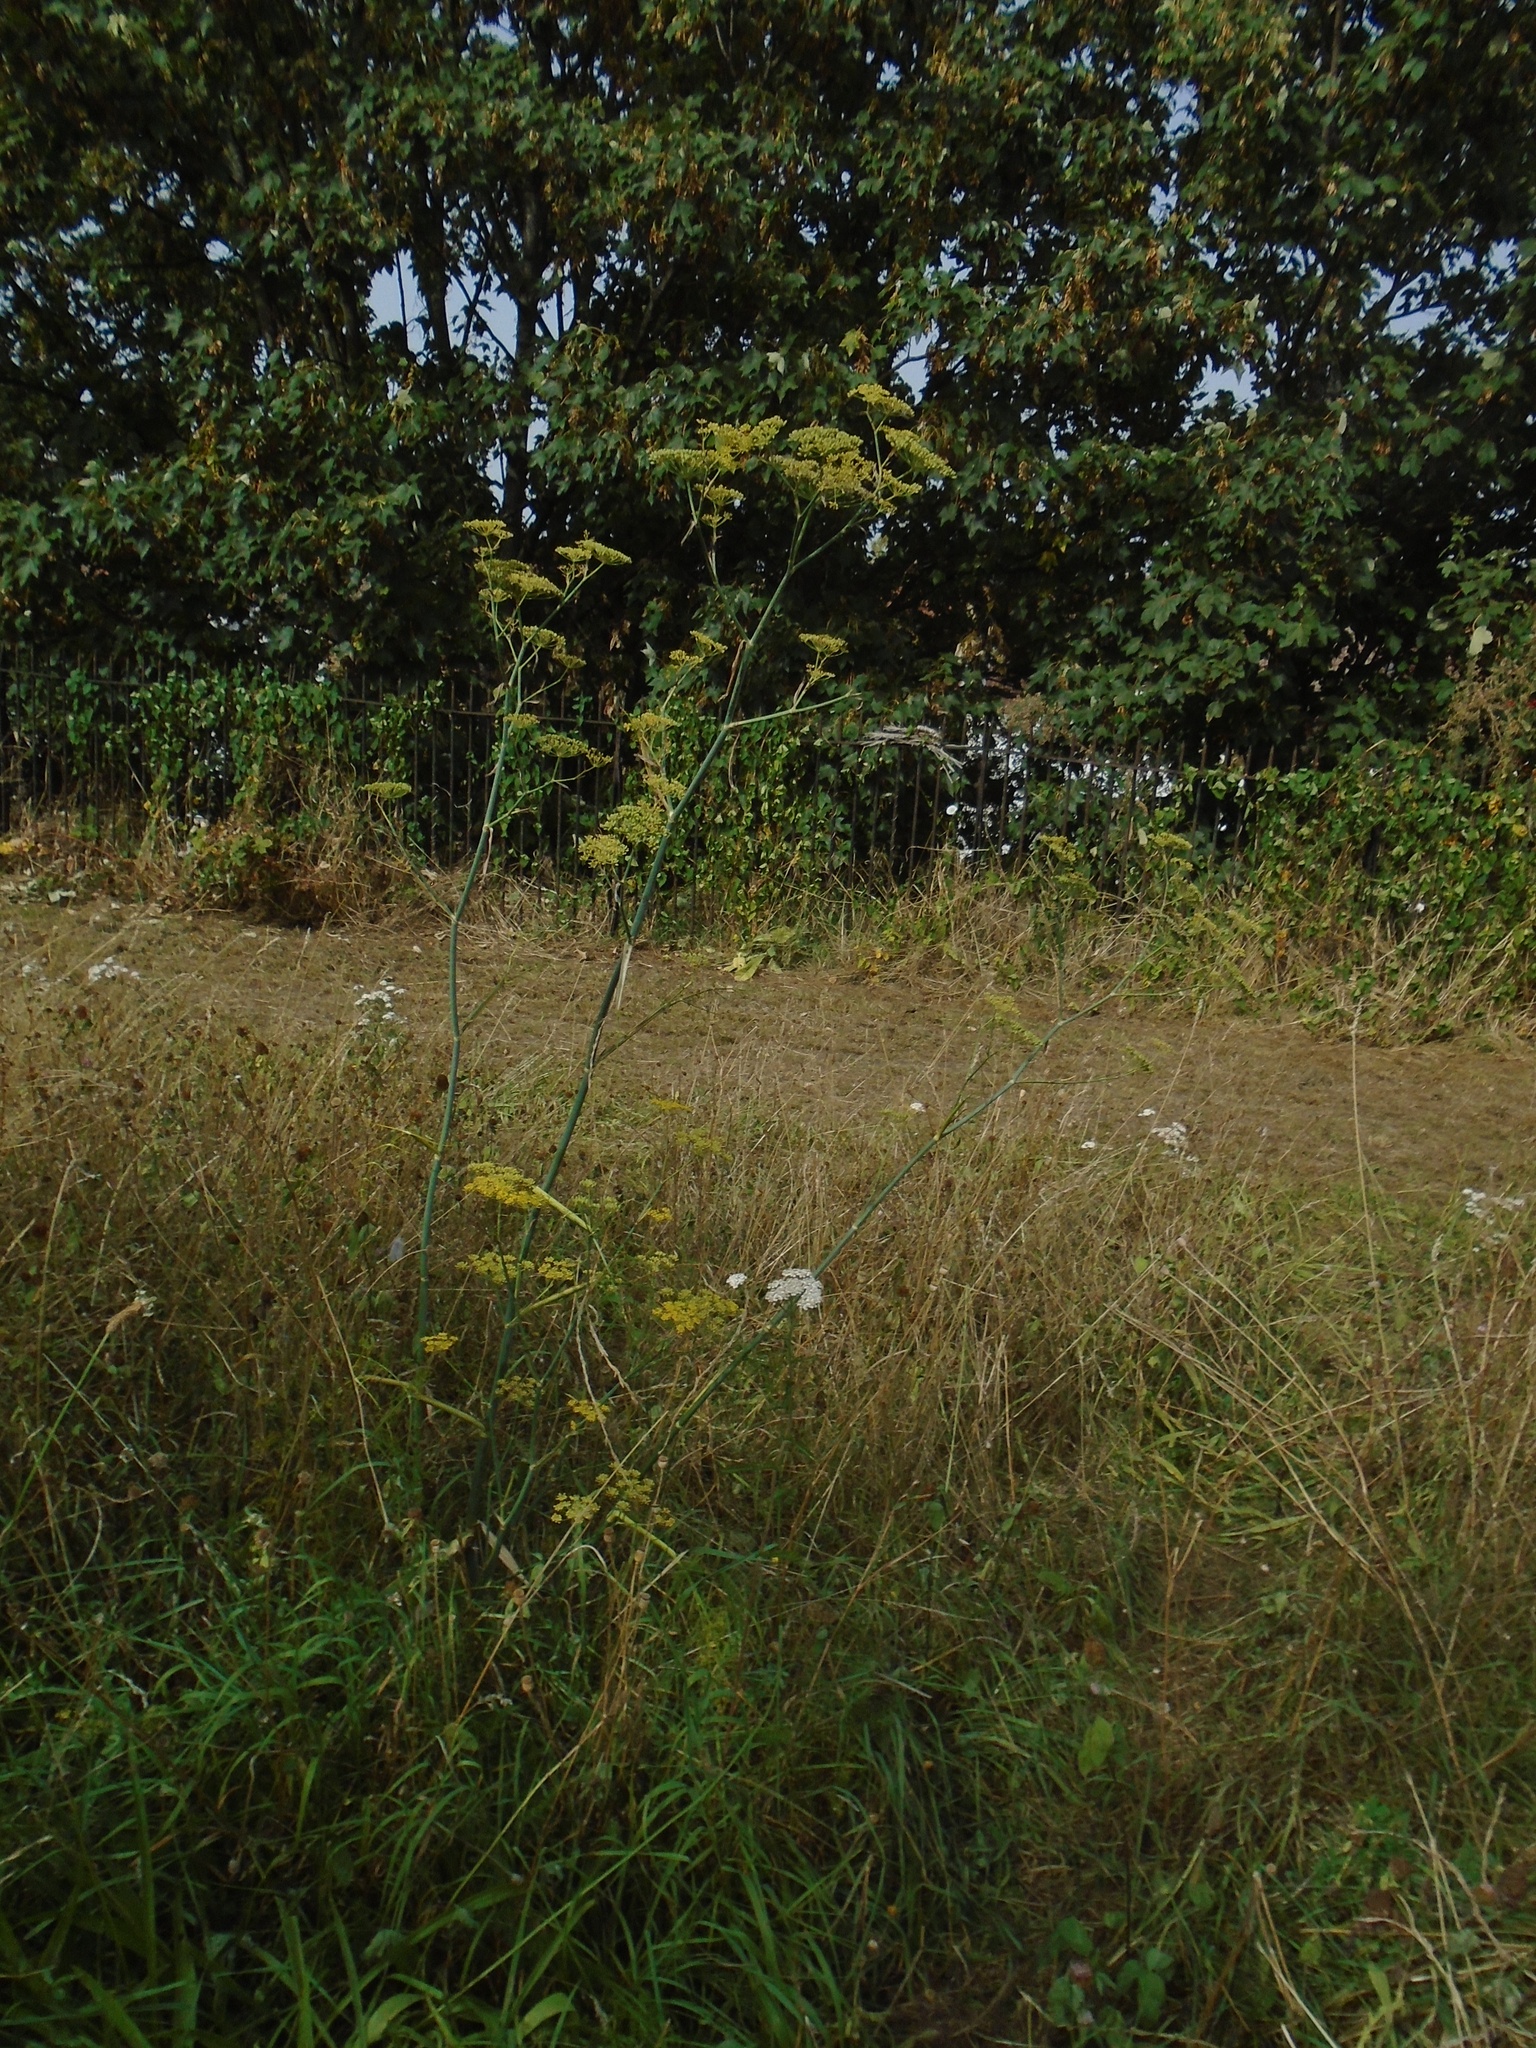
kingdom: Plantae
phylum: Tracheophyta
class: Magnoliopsida
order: Apiales
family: Apiaceae
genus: Foeniculum
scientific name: Foeniculum vulgare
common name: Fennel
